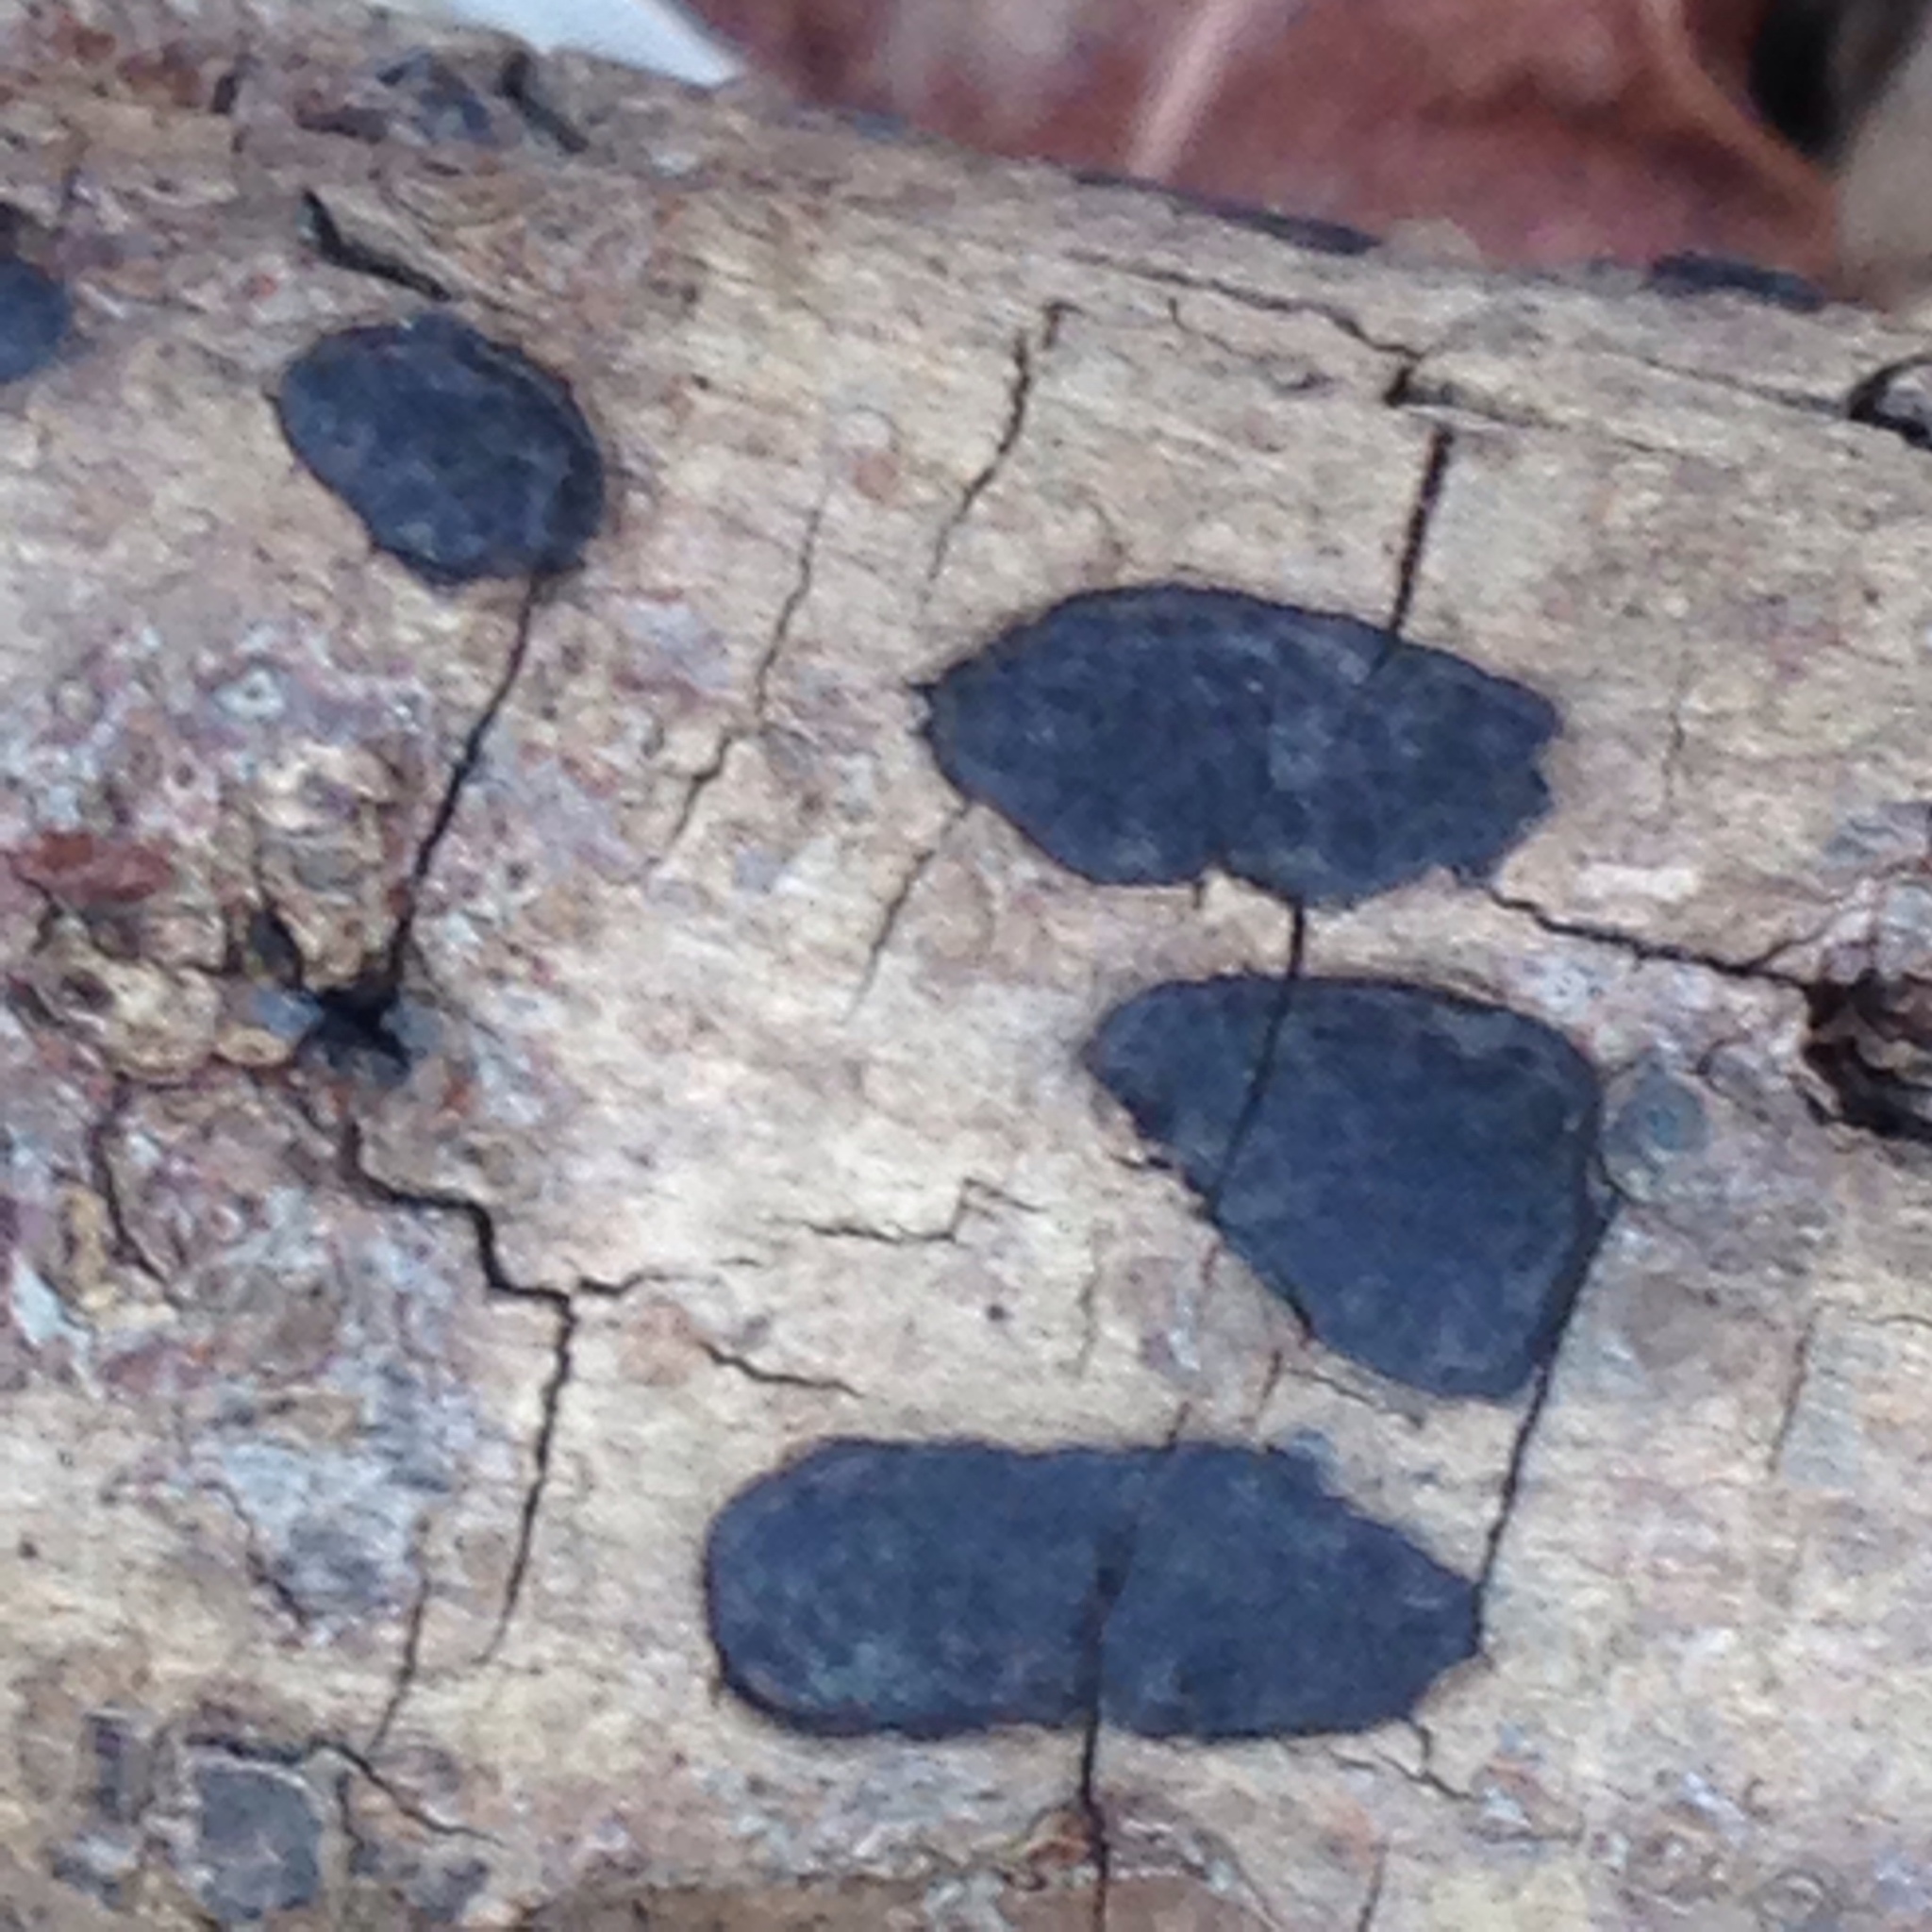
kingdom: Fungi
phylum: Ascomycota
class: Sordariomycetes
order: Xylariales
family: Xylariaceae
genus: Whalleya
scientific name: Whalleya microplaca
